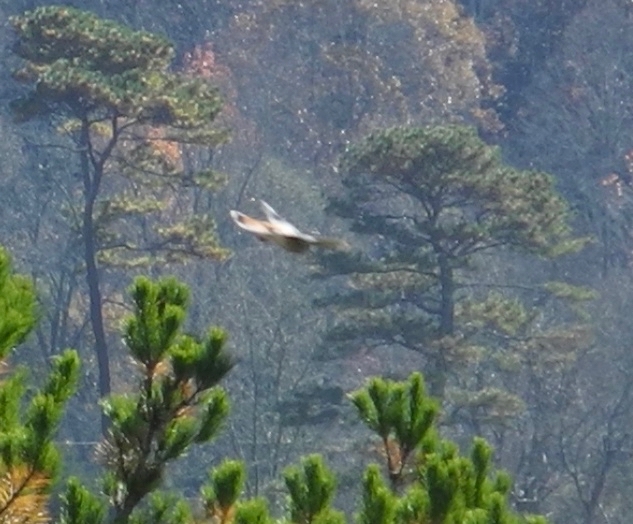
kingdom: Animalia
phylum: Chordata
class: Aves
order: Falconiformes
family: Falconidae
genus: Falco
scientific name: Falco sparverius
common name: American kestrel
